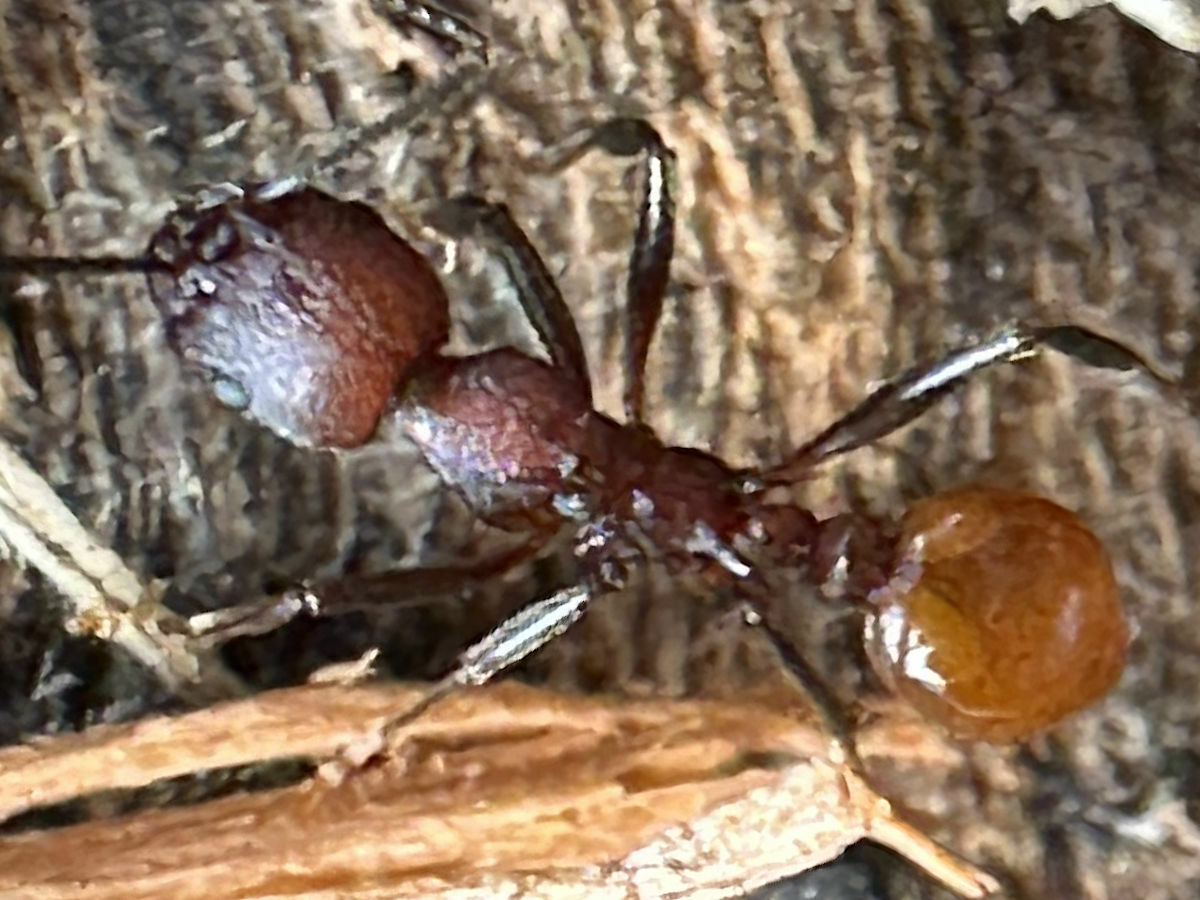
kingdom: Animalia
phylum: Arthropoda
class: Insecta
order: Hymenoptera
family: Formicidae
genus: Aphaenogaster
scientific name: Aphaenogaster tennesseensis
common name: Tennessee thread-waisted ant
